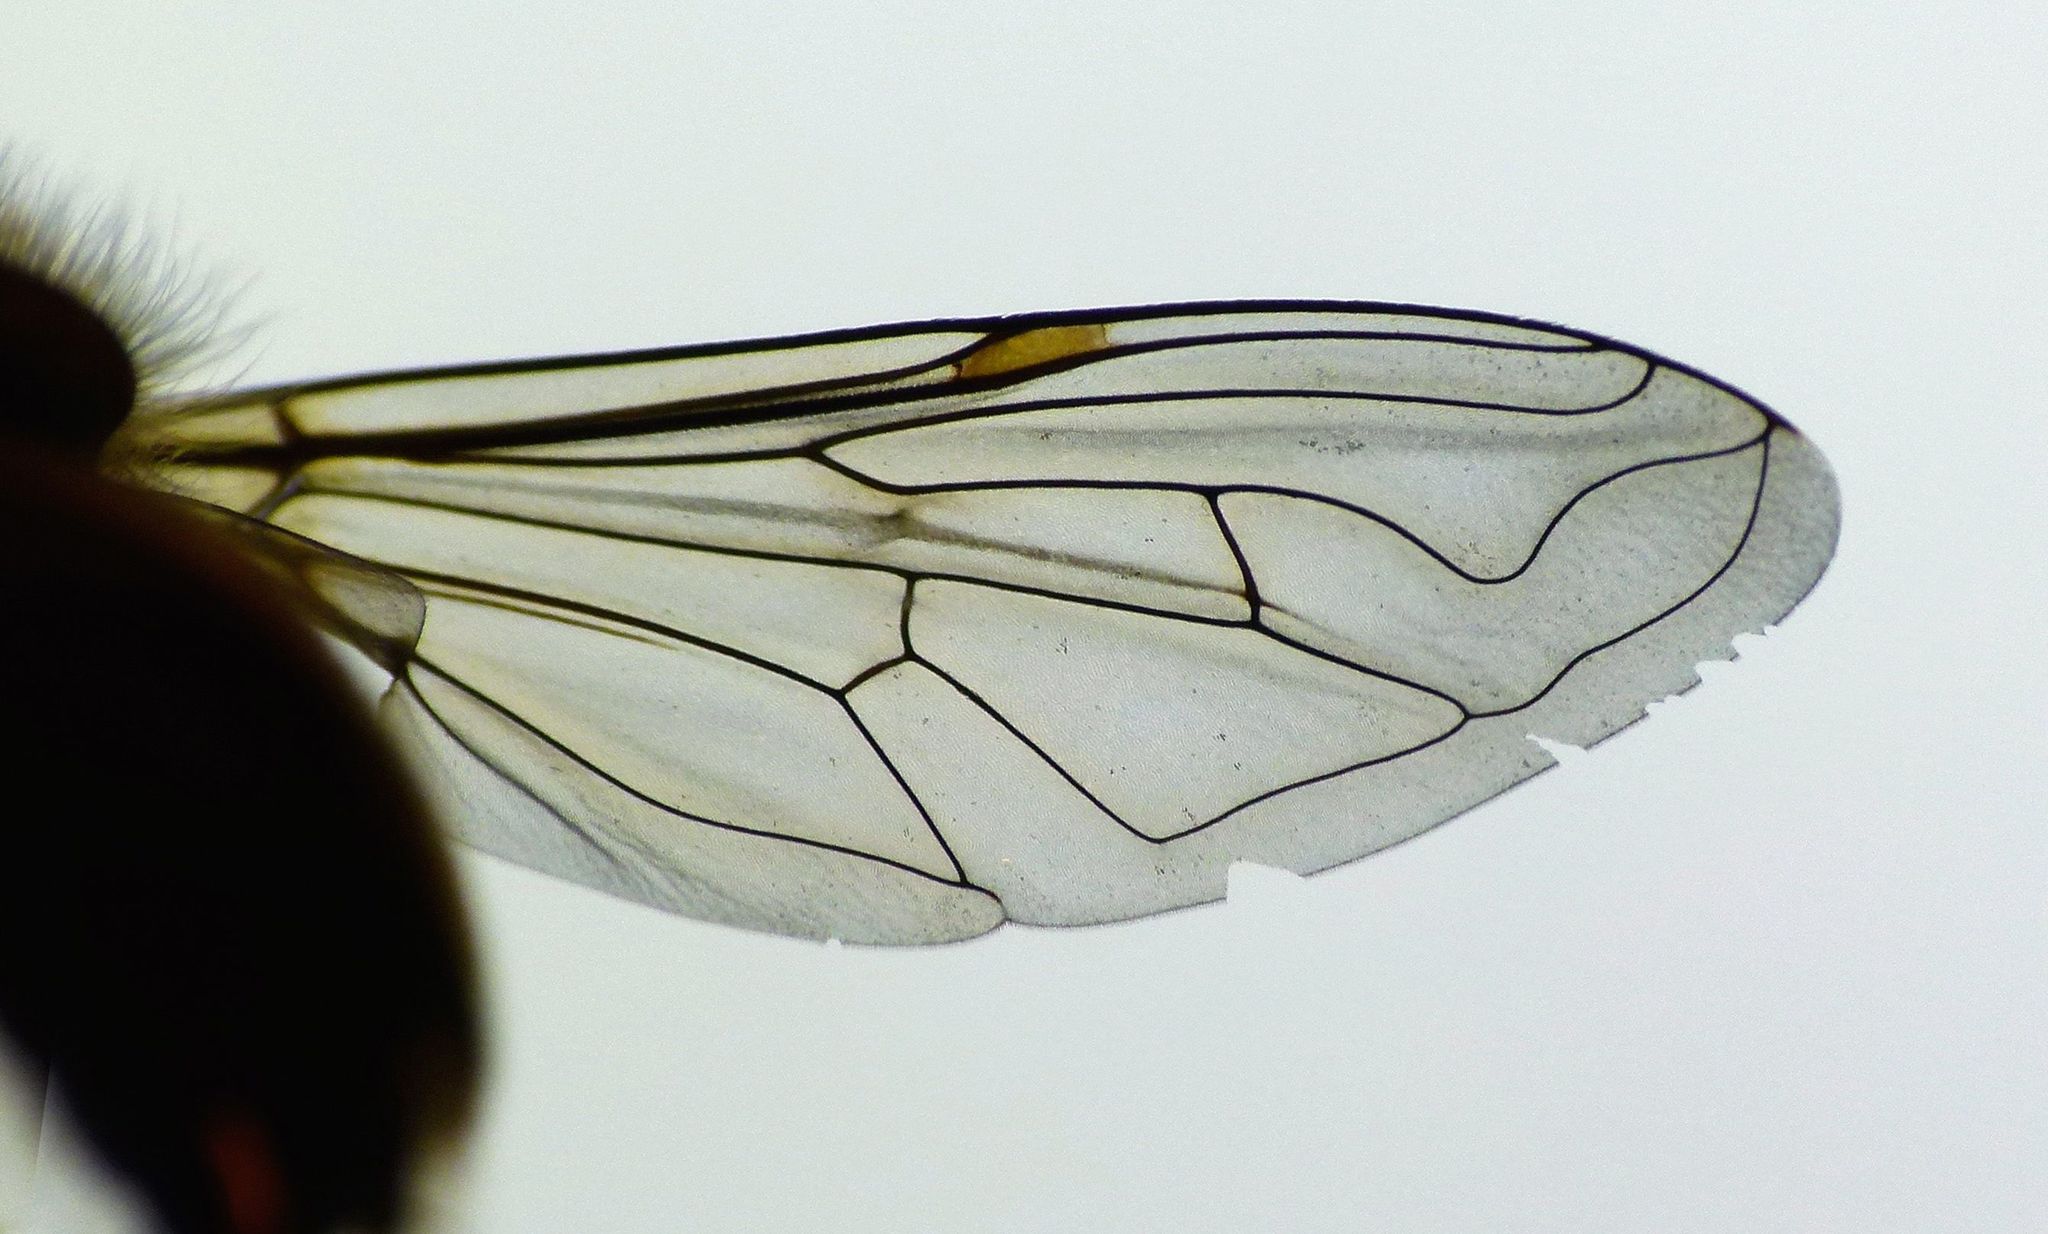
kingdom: Animalia
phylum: Arthropoda
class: Insecta
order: Diptera
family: Syrphidae
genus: Helophilus
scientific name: Helophilus ineptus
